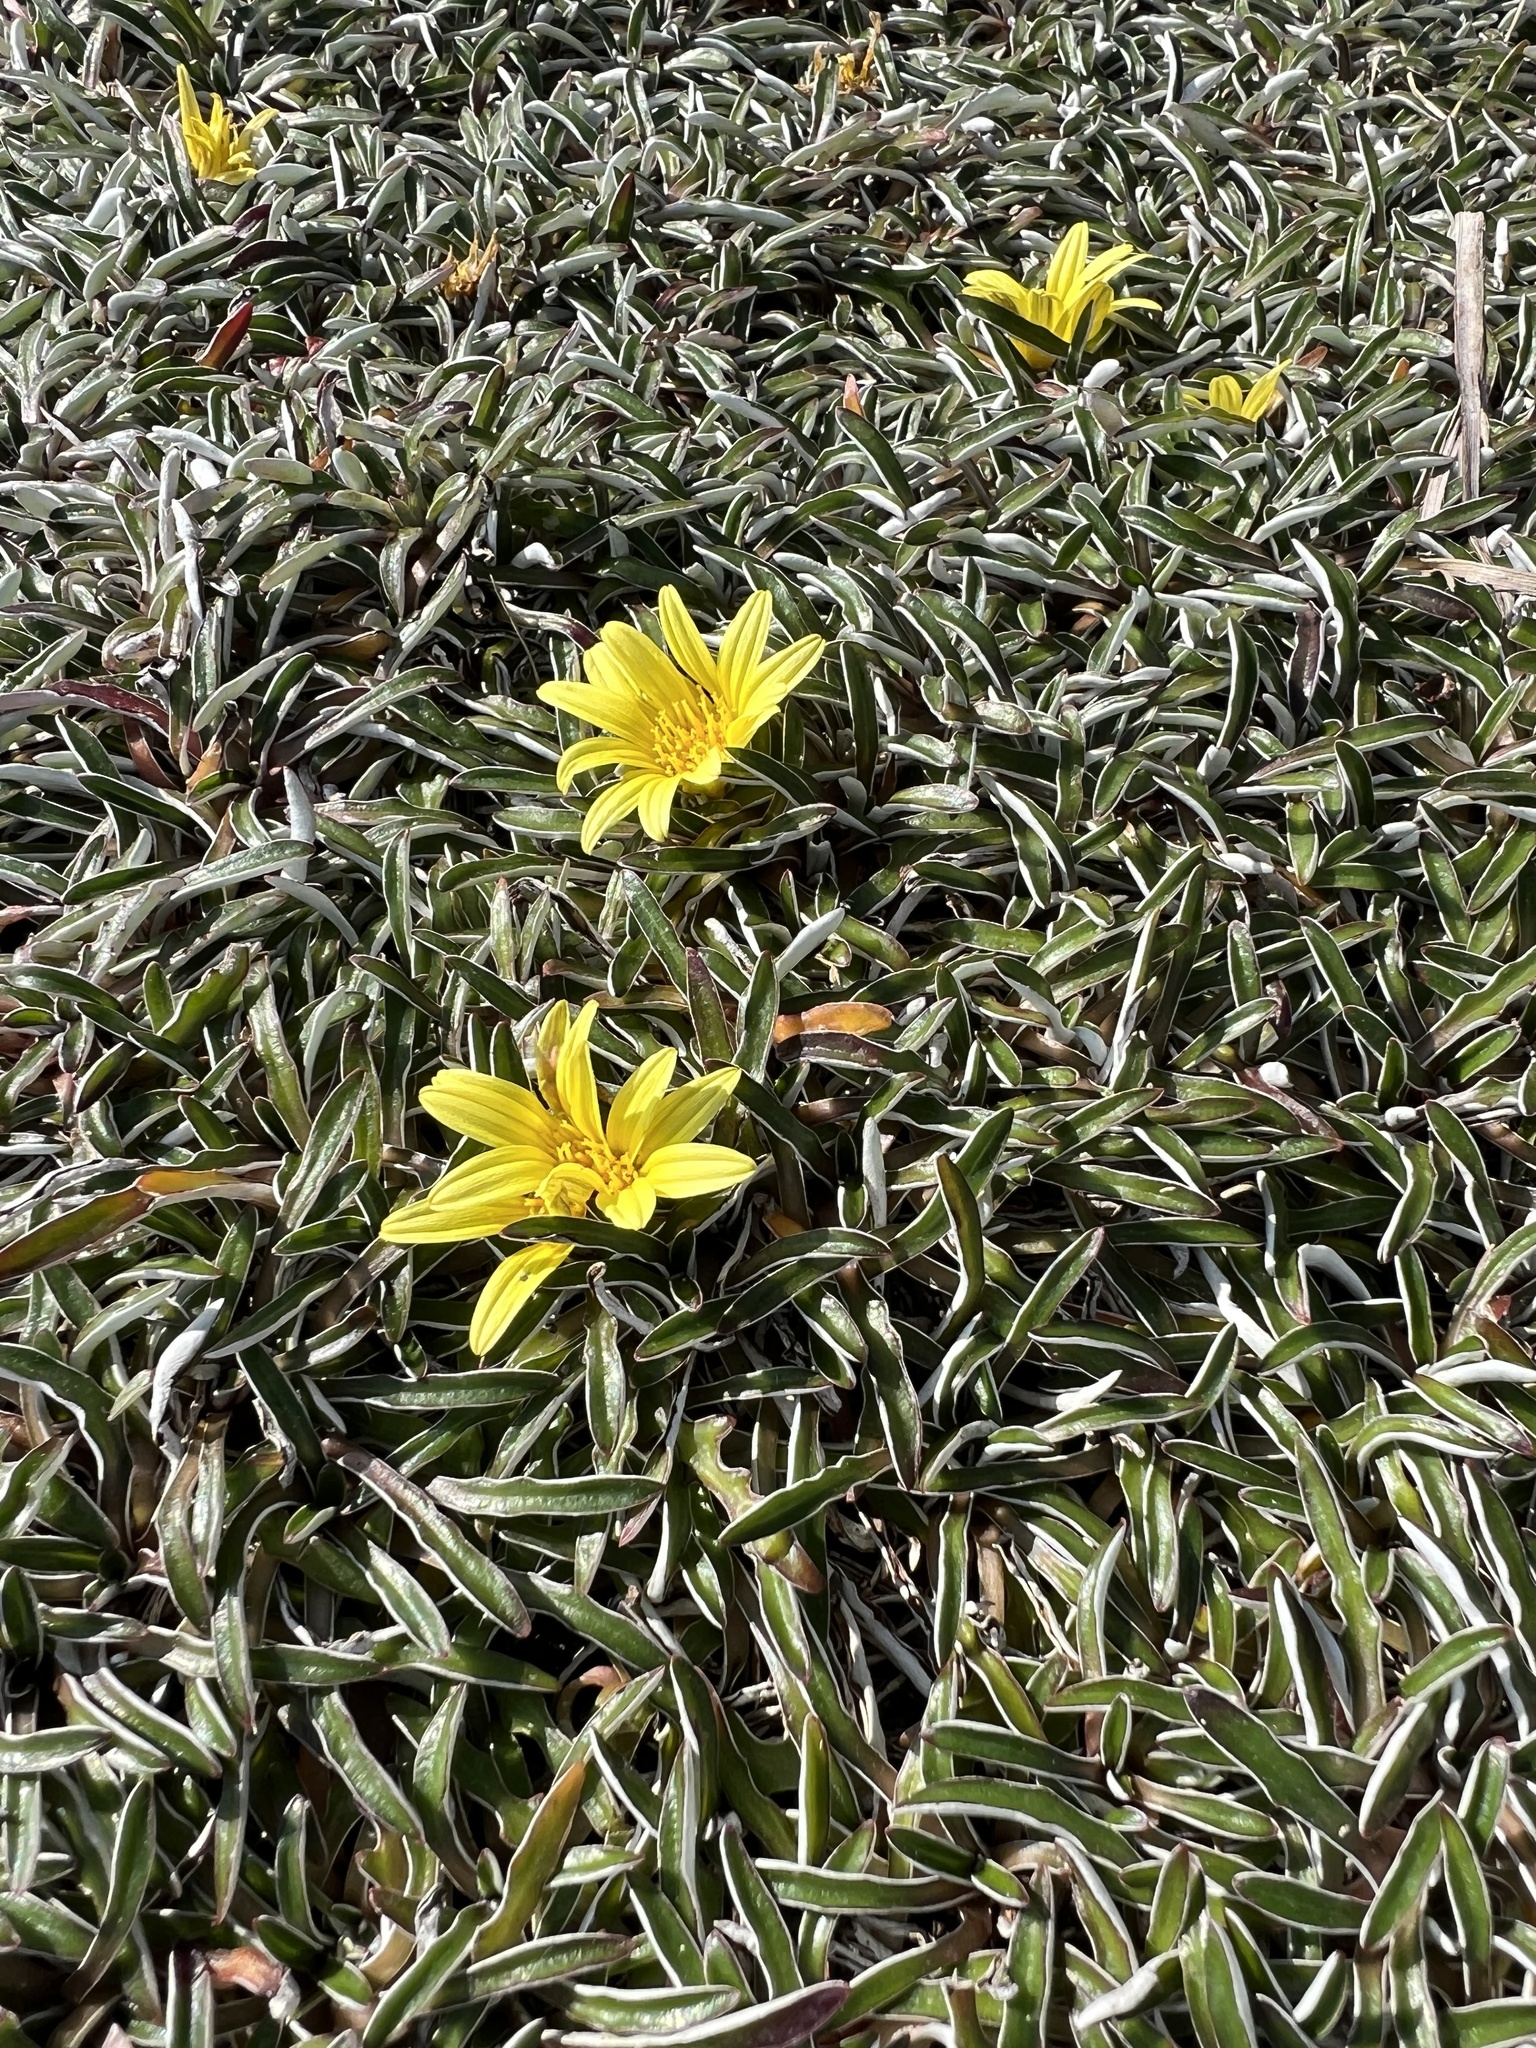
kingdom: Plantae
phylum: Tracheophyta
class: Magnoliopsida
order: Asterales
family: Asteraceae
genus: Gazania
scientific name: Gazania rigens
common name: Treasureflower
